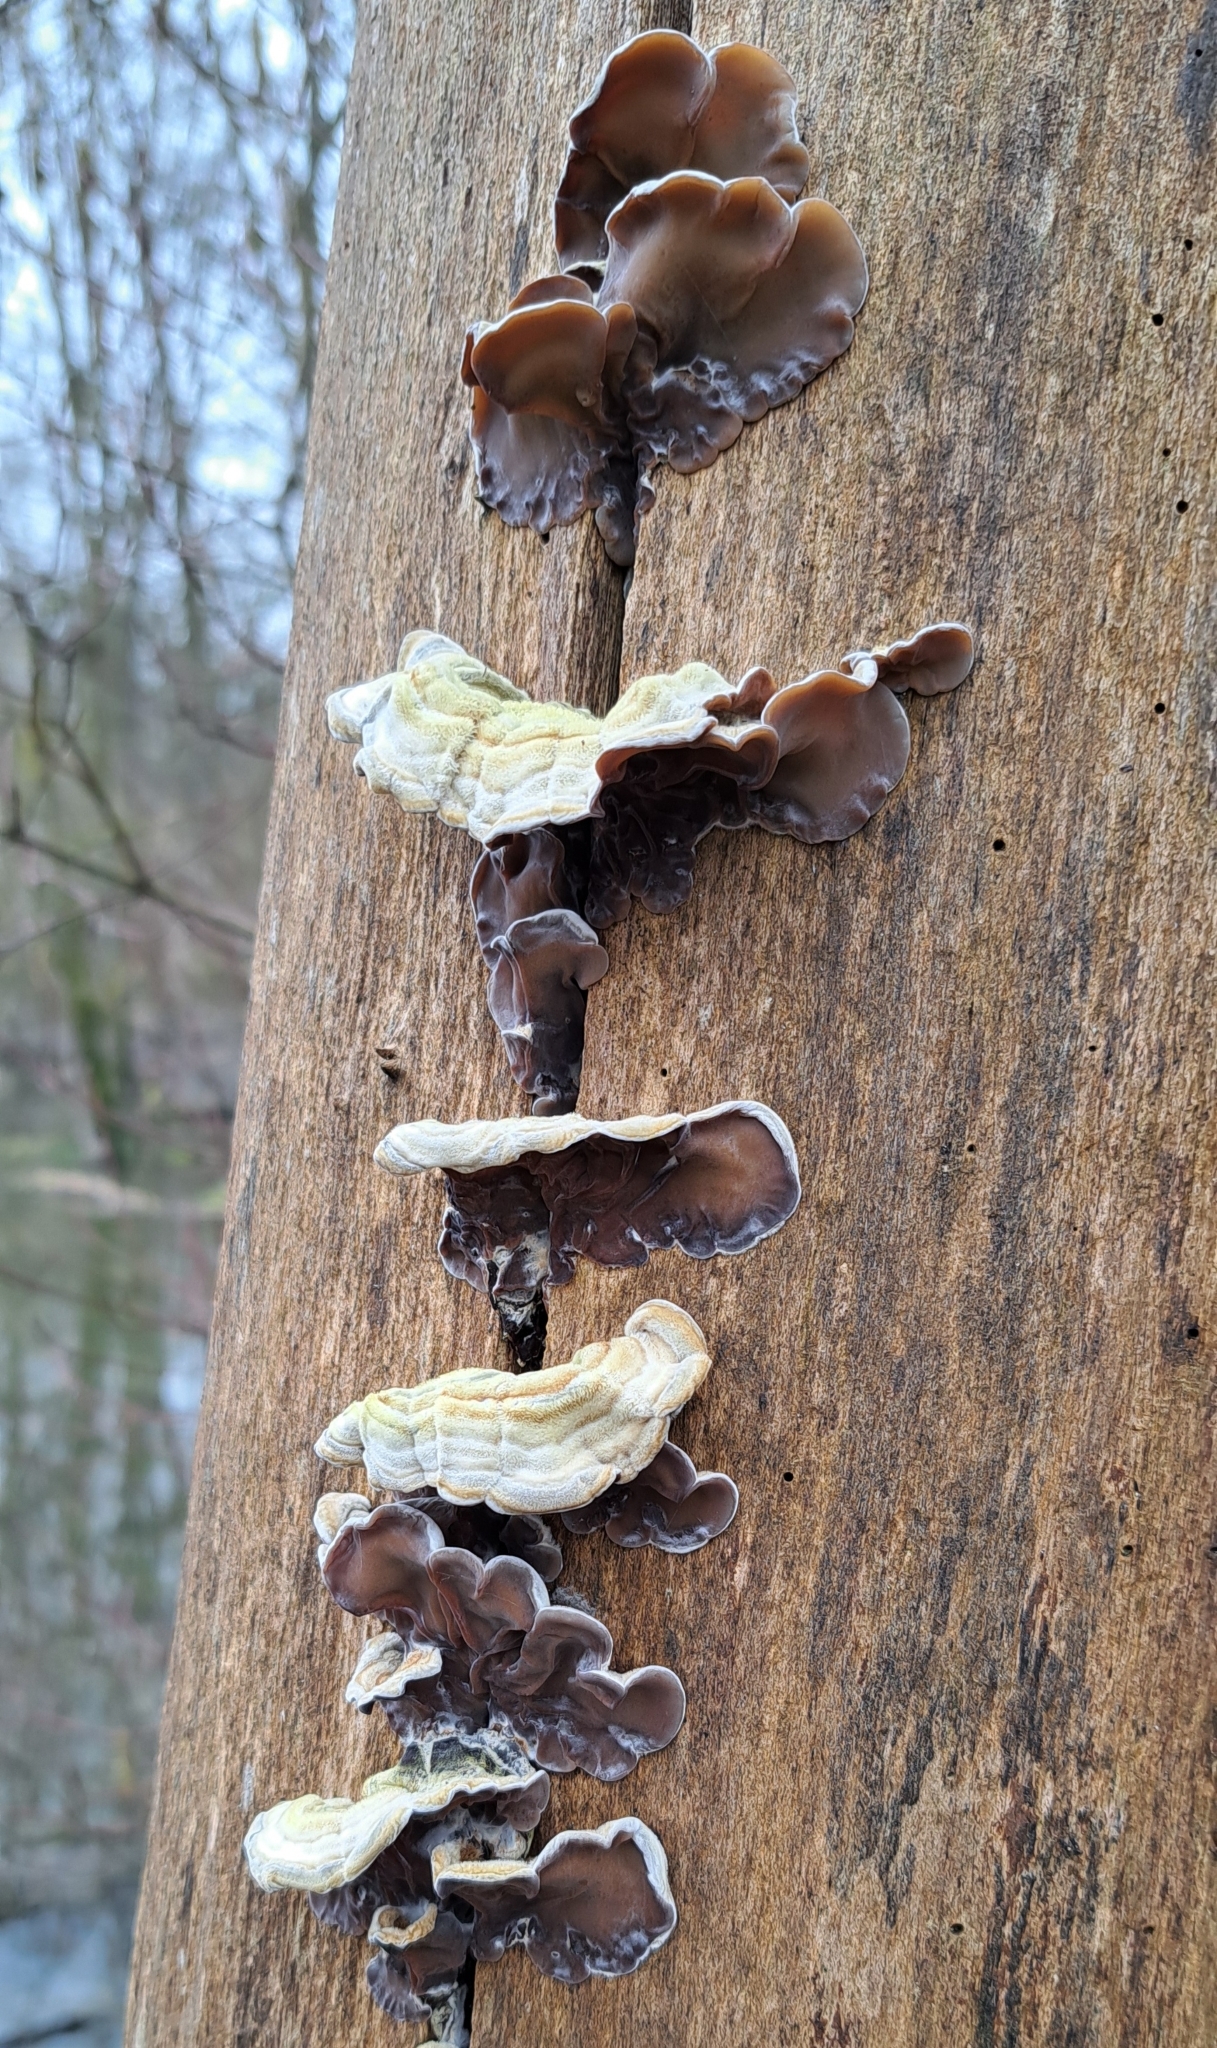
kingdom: Fungi
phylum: Basidiomycota
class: Agaricomycetes
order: Auriculariales
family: Auriculariaceae
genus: Auricularia
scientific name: Auricularia mesenterica
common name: Tripe fungus
